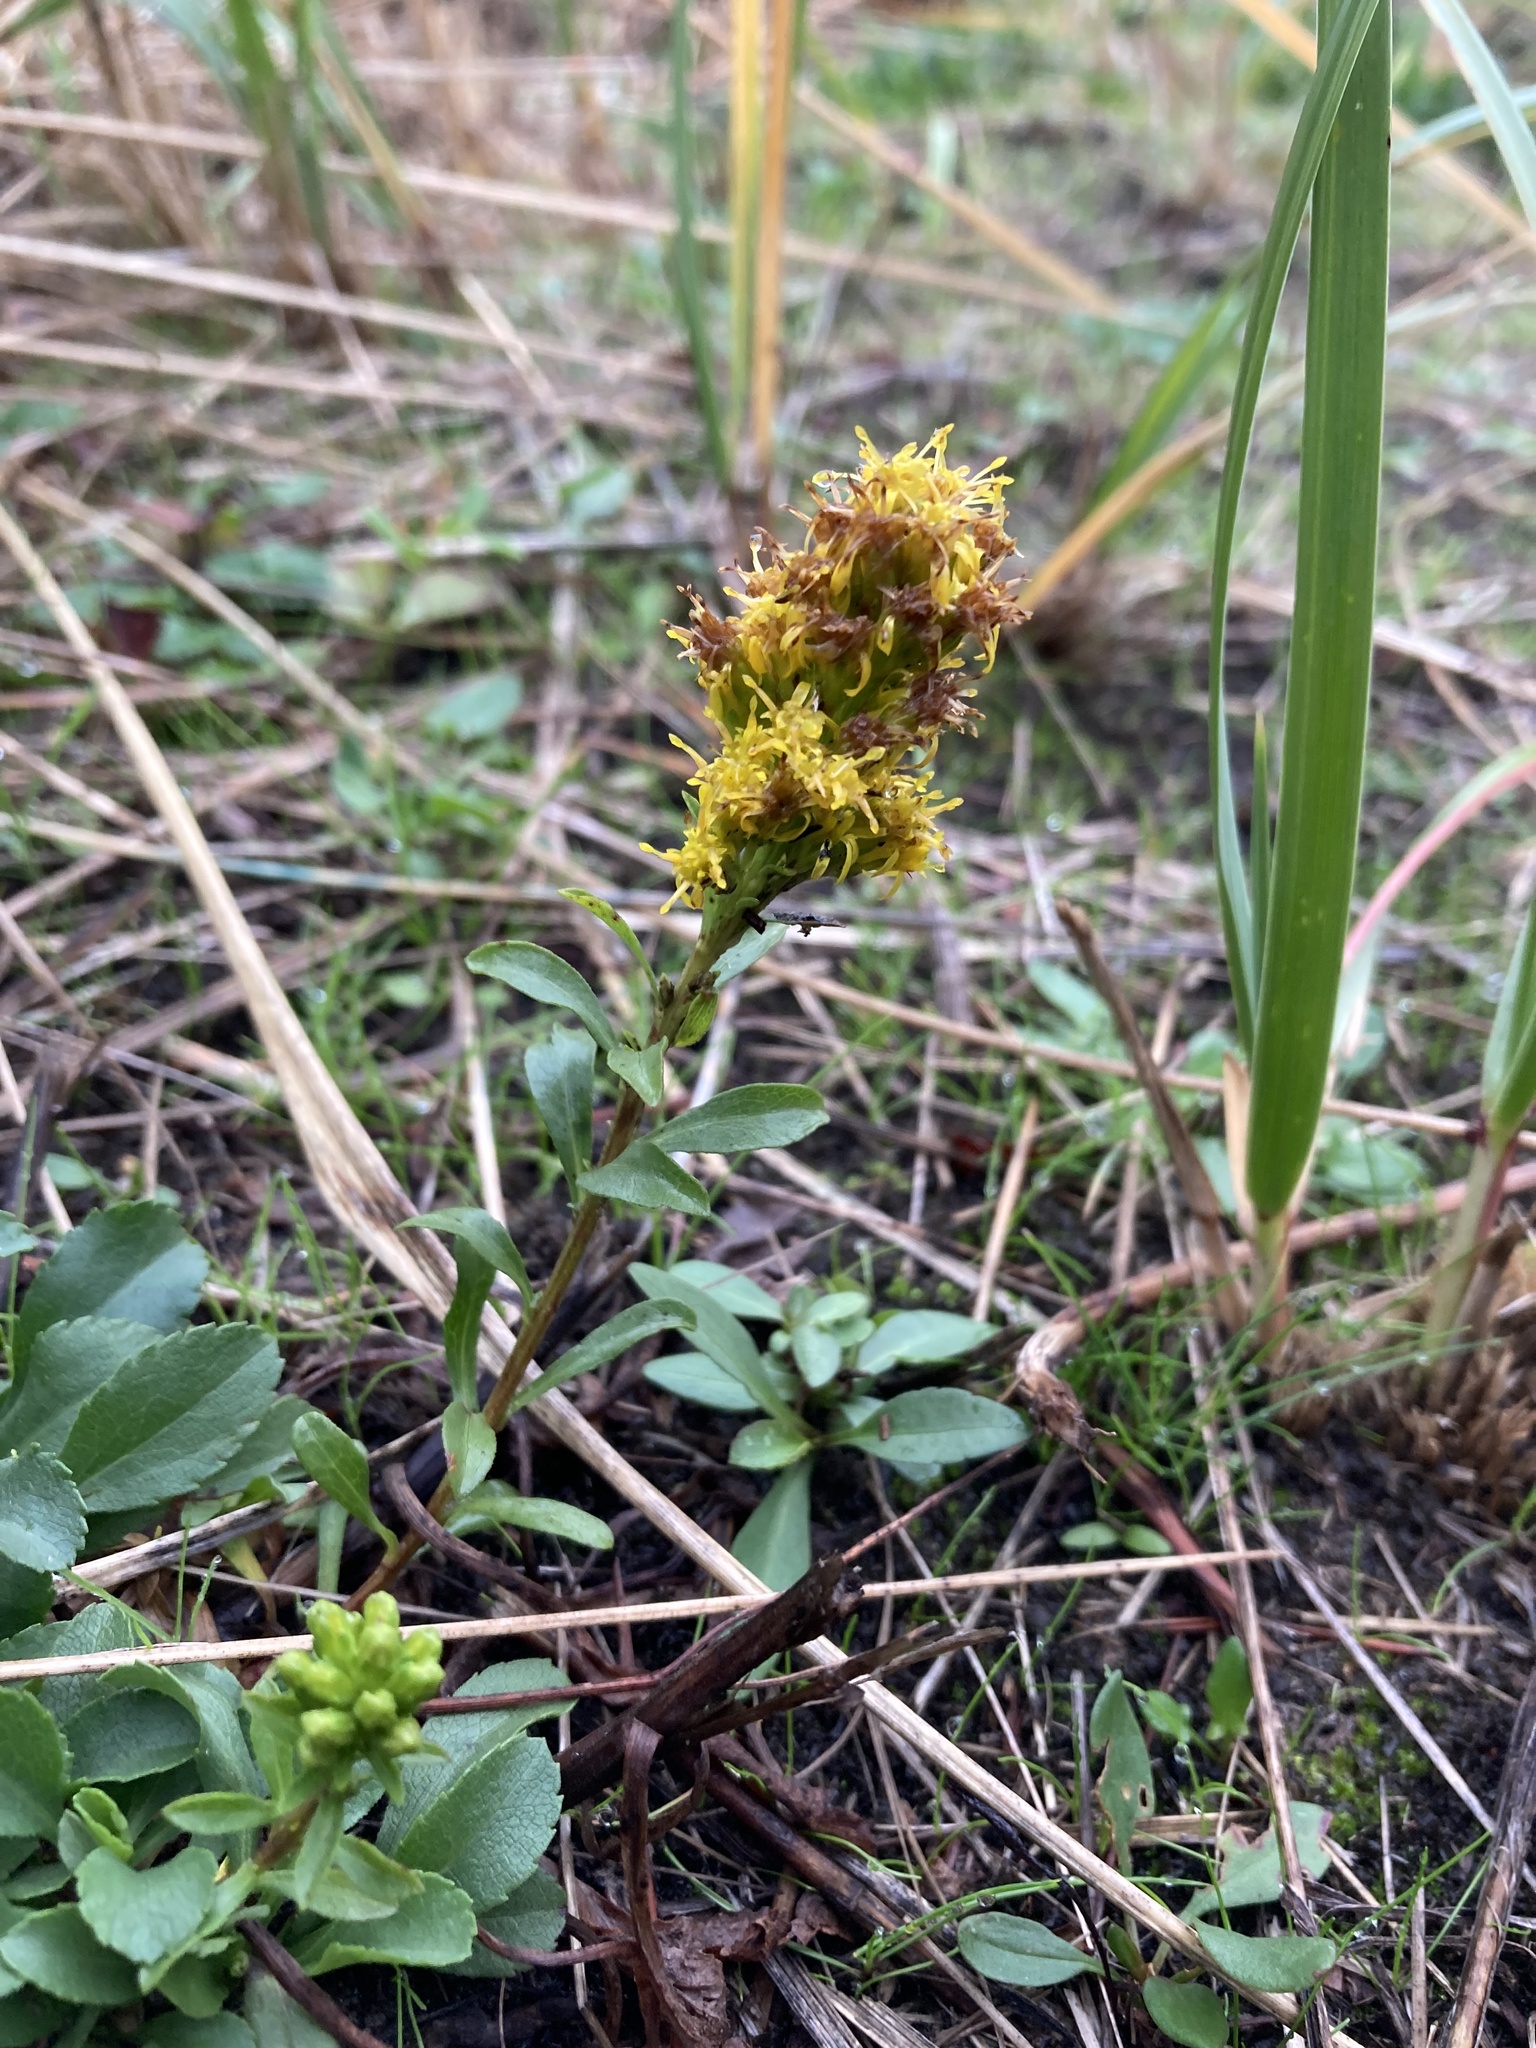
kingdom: Plantae
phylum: Tracheophyta
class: Magnoliopsida
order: Asterales
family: Asteraceae
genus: Solidago
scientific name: Solidago spathulata
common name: Coast goldenrod
